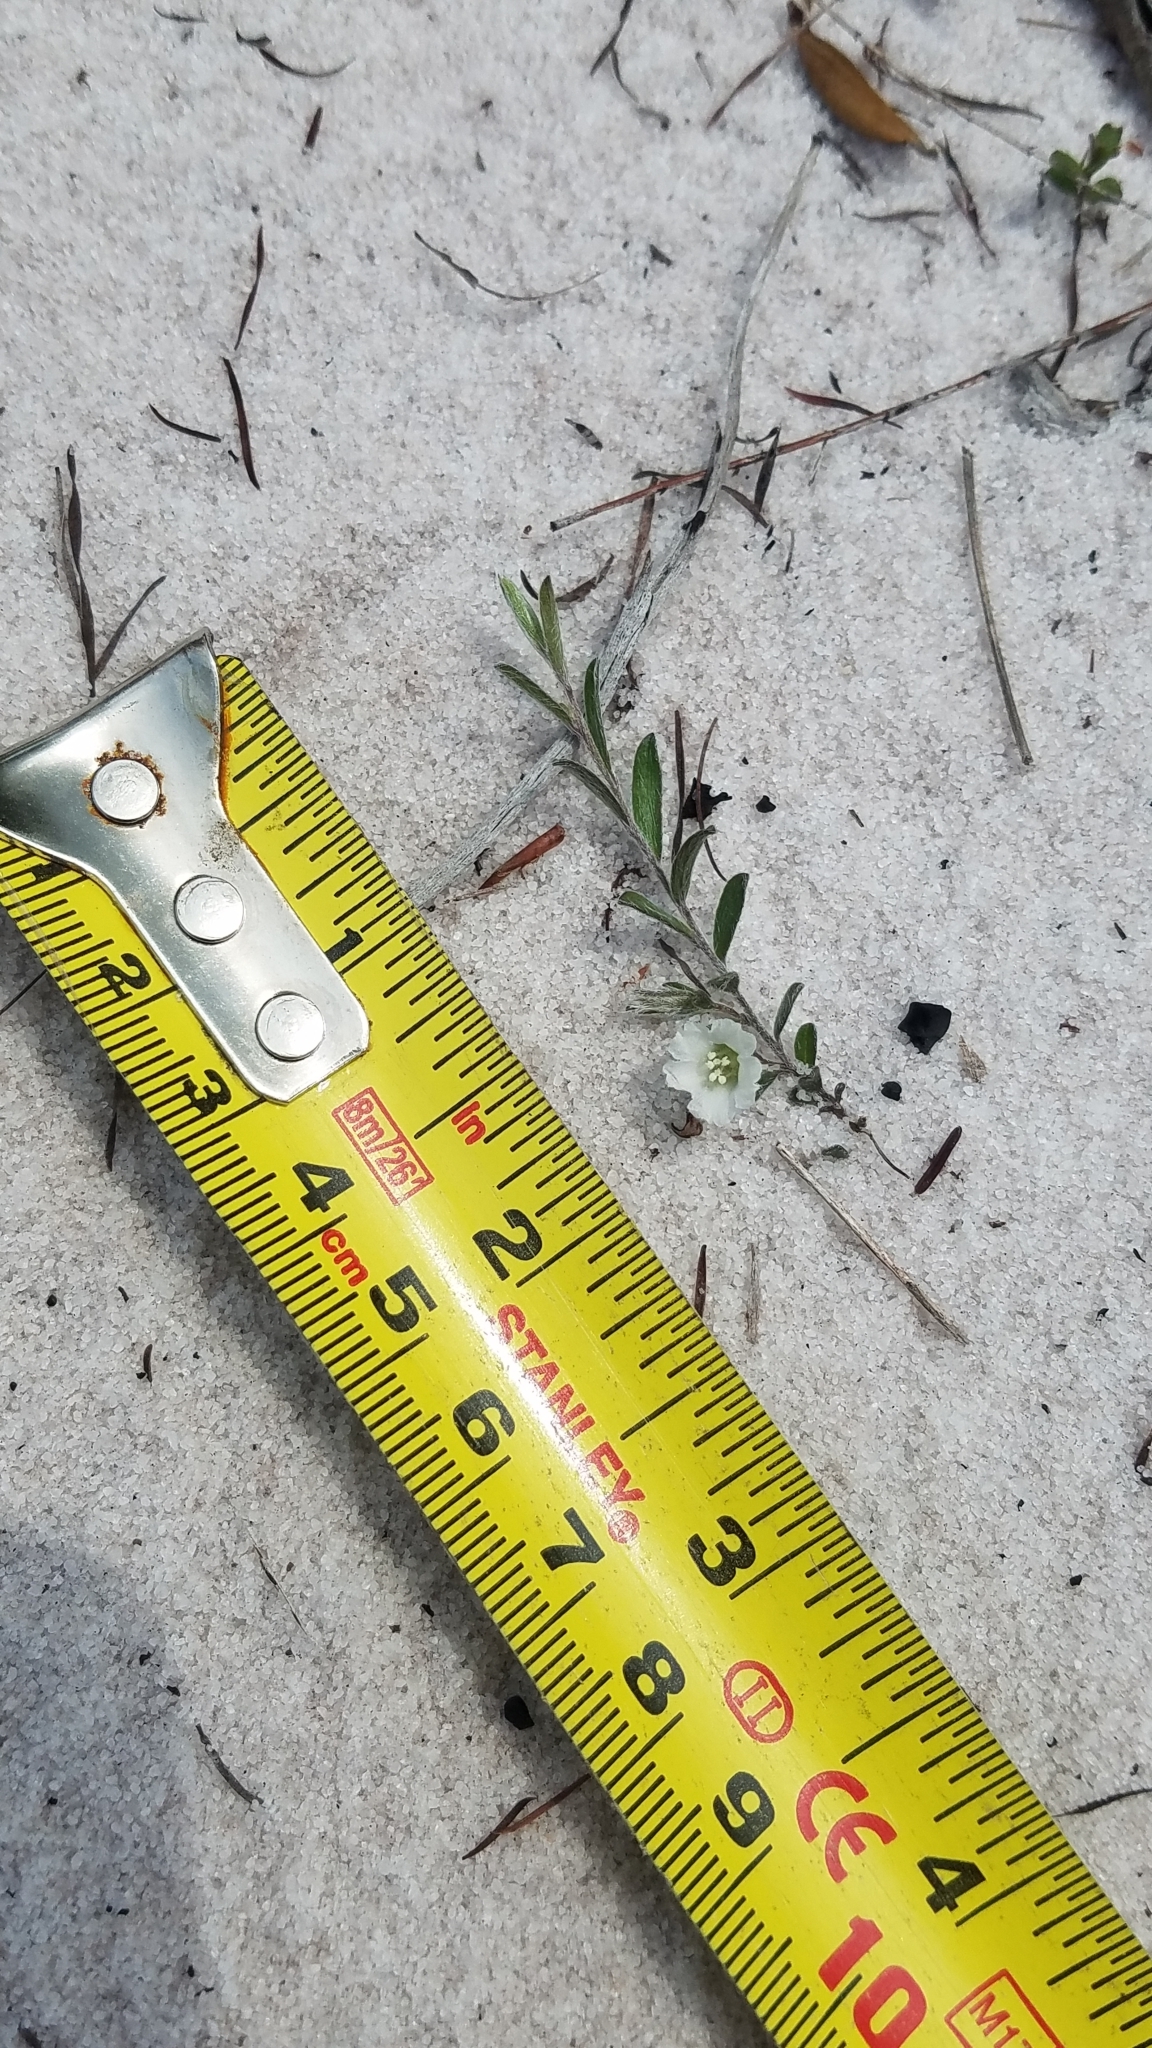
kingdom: Plantae
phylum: Tracheophyta
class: Magnoliopsida
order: Solanales
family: Convolvulaceae
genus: Stylisma
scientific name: Stylisma abdita
